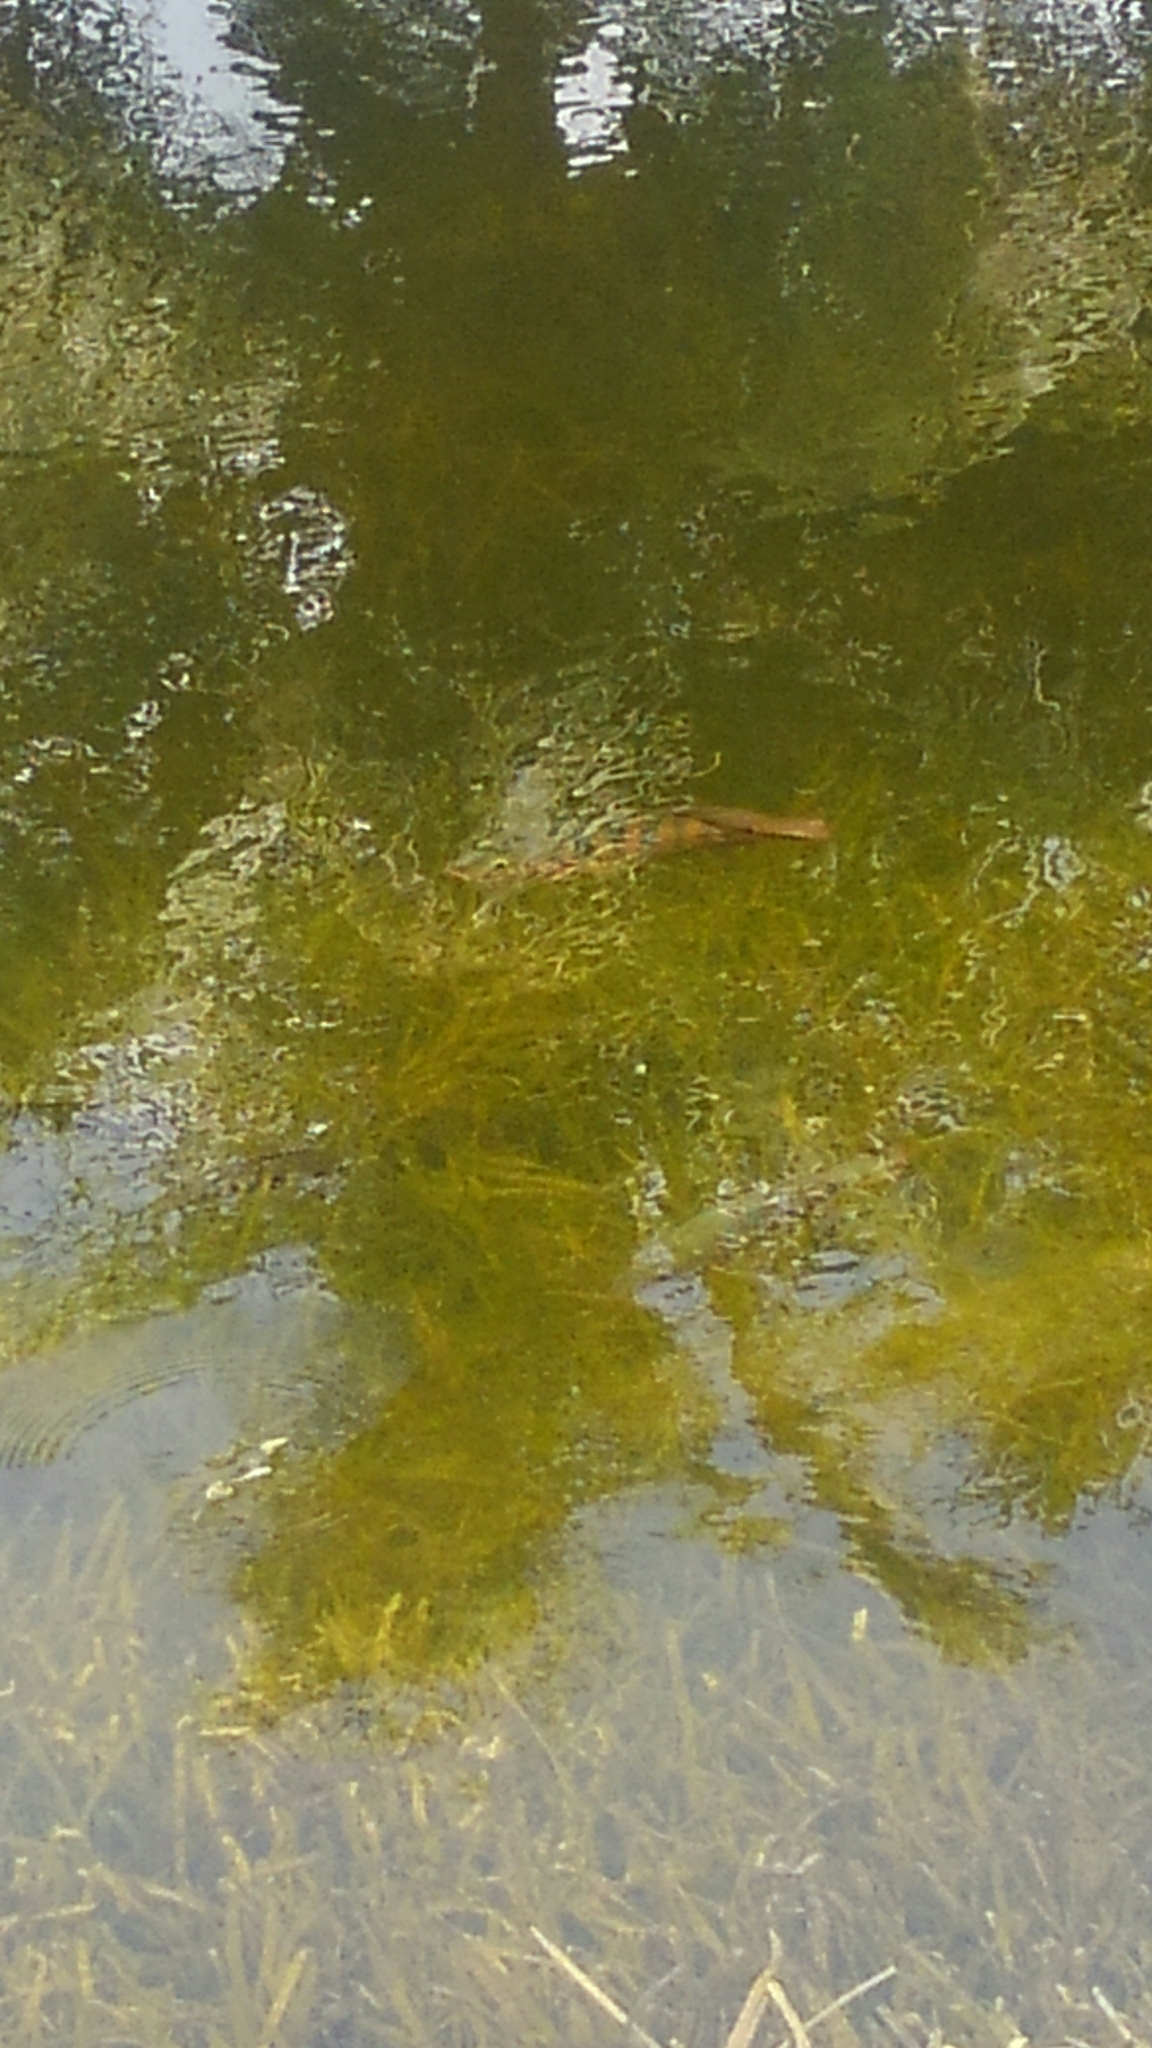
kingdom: Animalia
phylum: Chordata
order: Perciformes
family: Cichlidae
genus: Mayaheros
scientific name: Mayaheros urophthalmus
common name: Mayan cichlid
